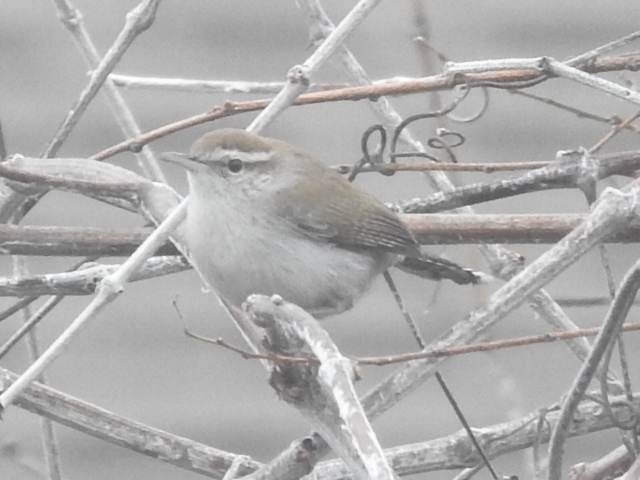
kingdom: Animalia
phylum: Chordata
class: Aves
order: Passeriformes
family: Troglodytidae
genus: Thryomanes
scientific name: Thryomanes bewickii
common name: Bewick's wren
